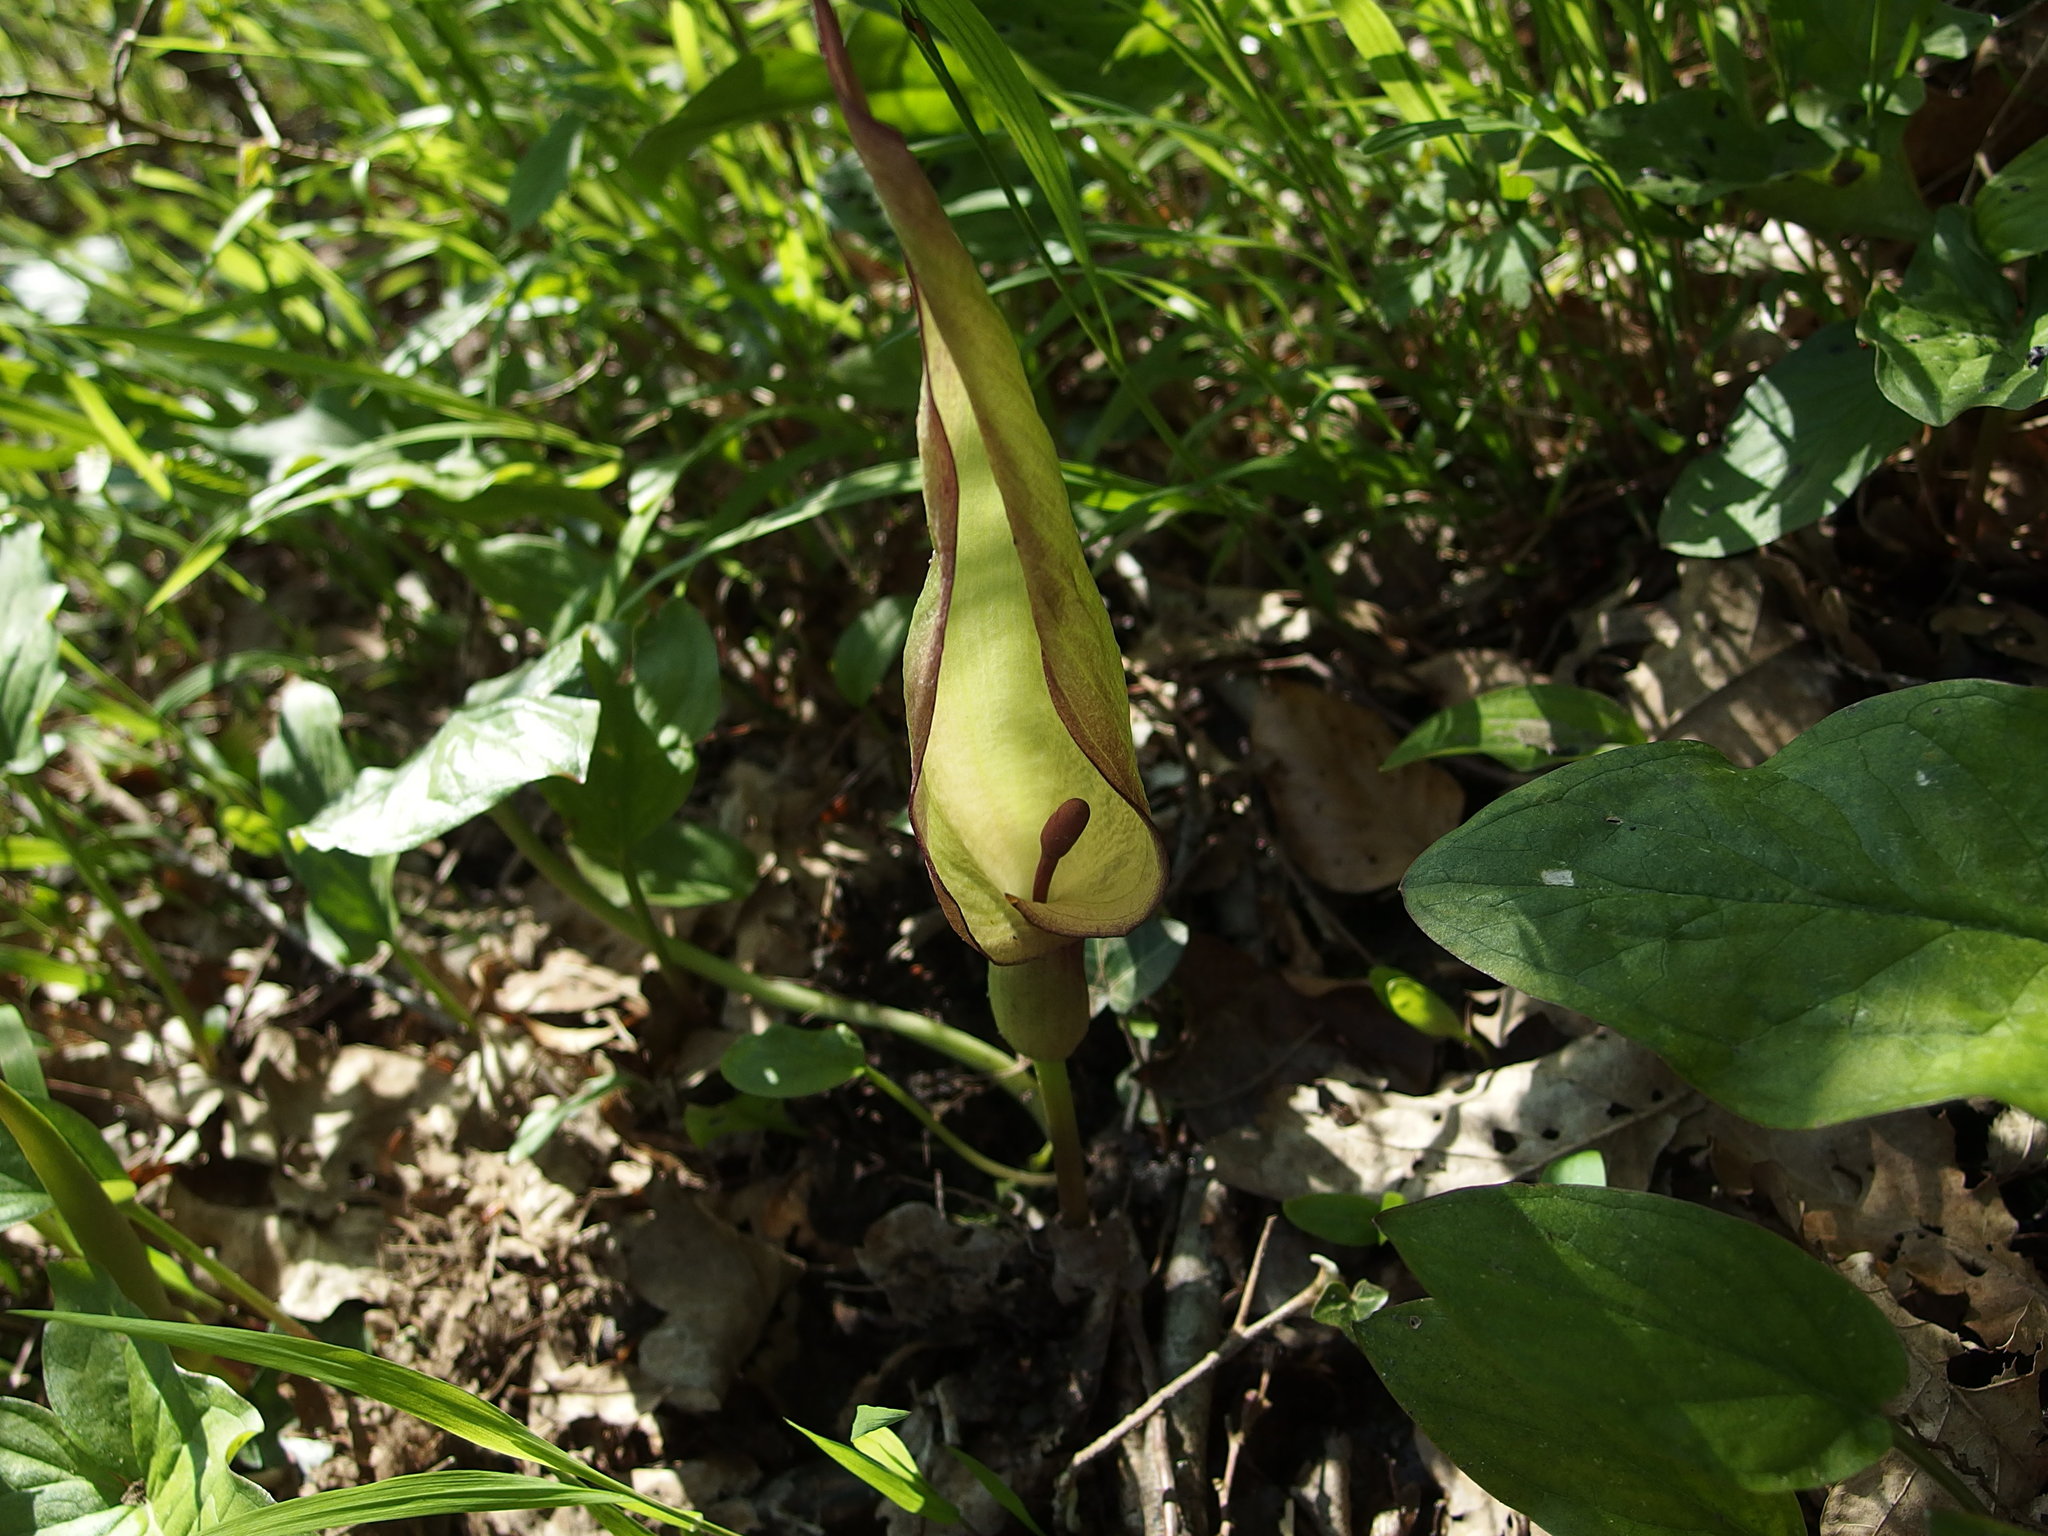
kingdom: Plantae
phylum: Tracheophyta
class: Liliopsida
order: Alismatales
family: Araceae
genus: Arum
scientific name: Arum maculatum
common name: Lords-and-ladies
